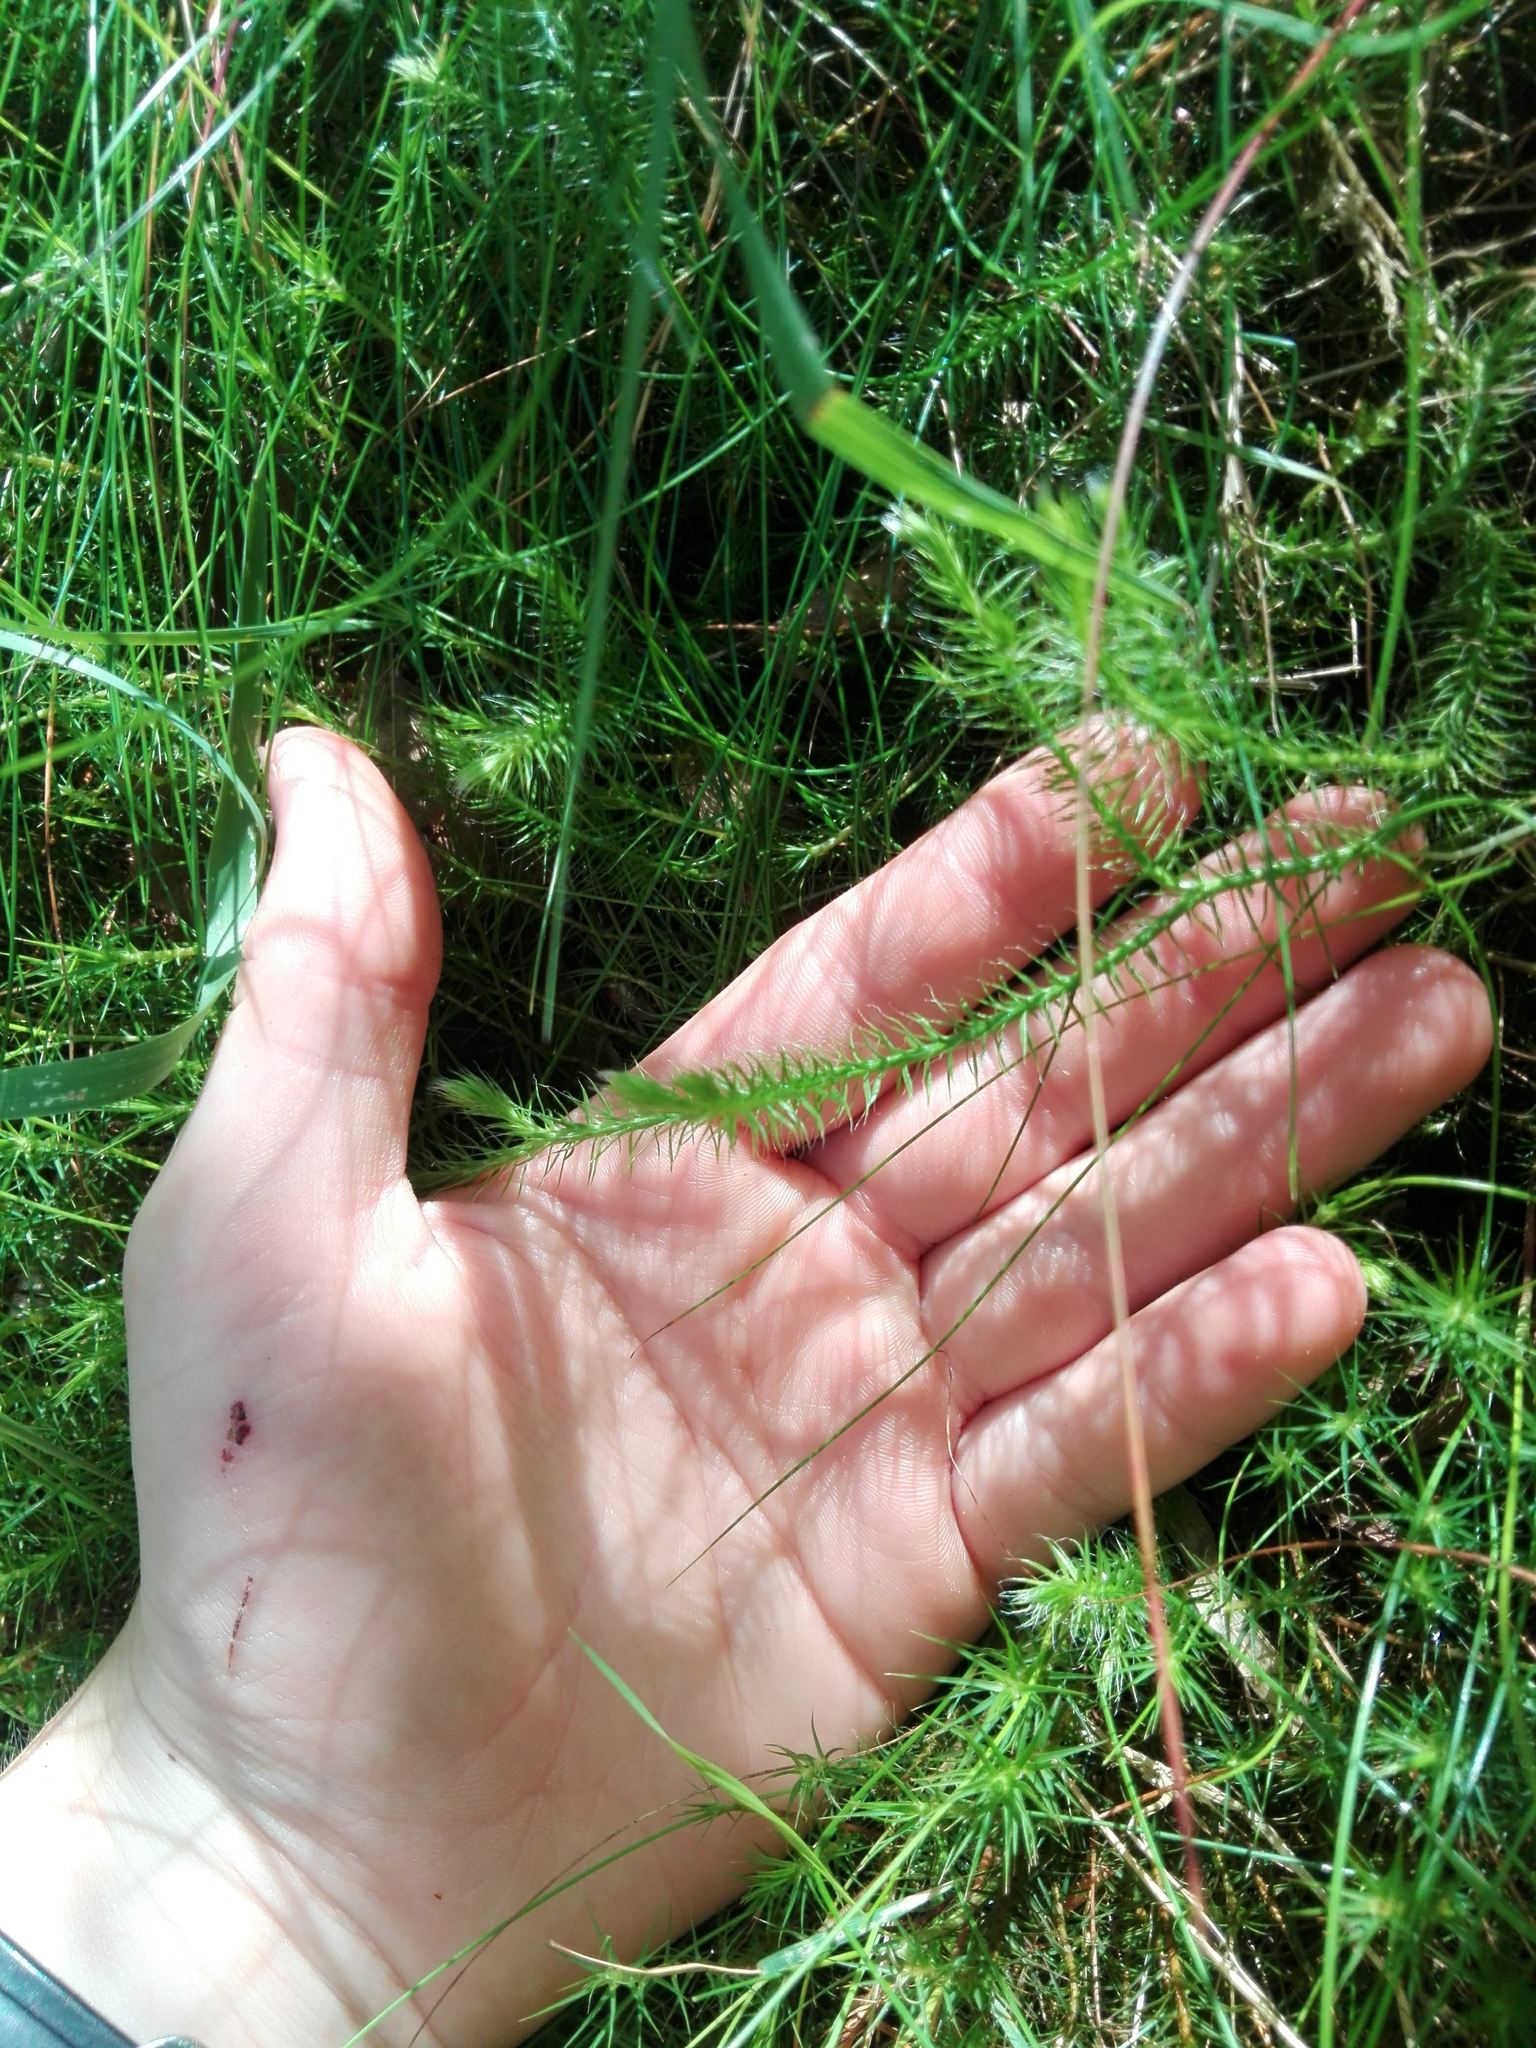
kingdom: Plantae
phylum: Tracheophyta
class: Lycopodiopsida
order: Lycopodiales
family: Lycopodiaceae
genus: Lycopodium
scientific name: Lycopodium clavatum
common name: Stag's-horn clubmoss
